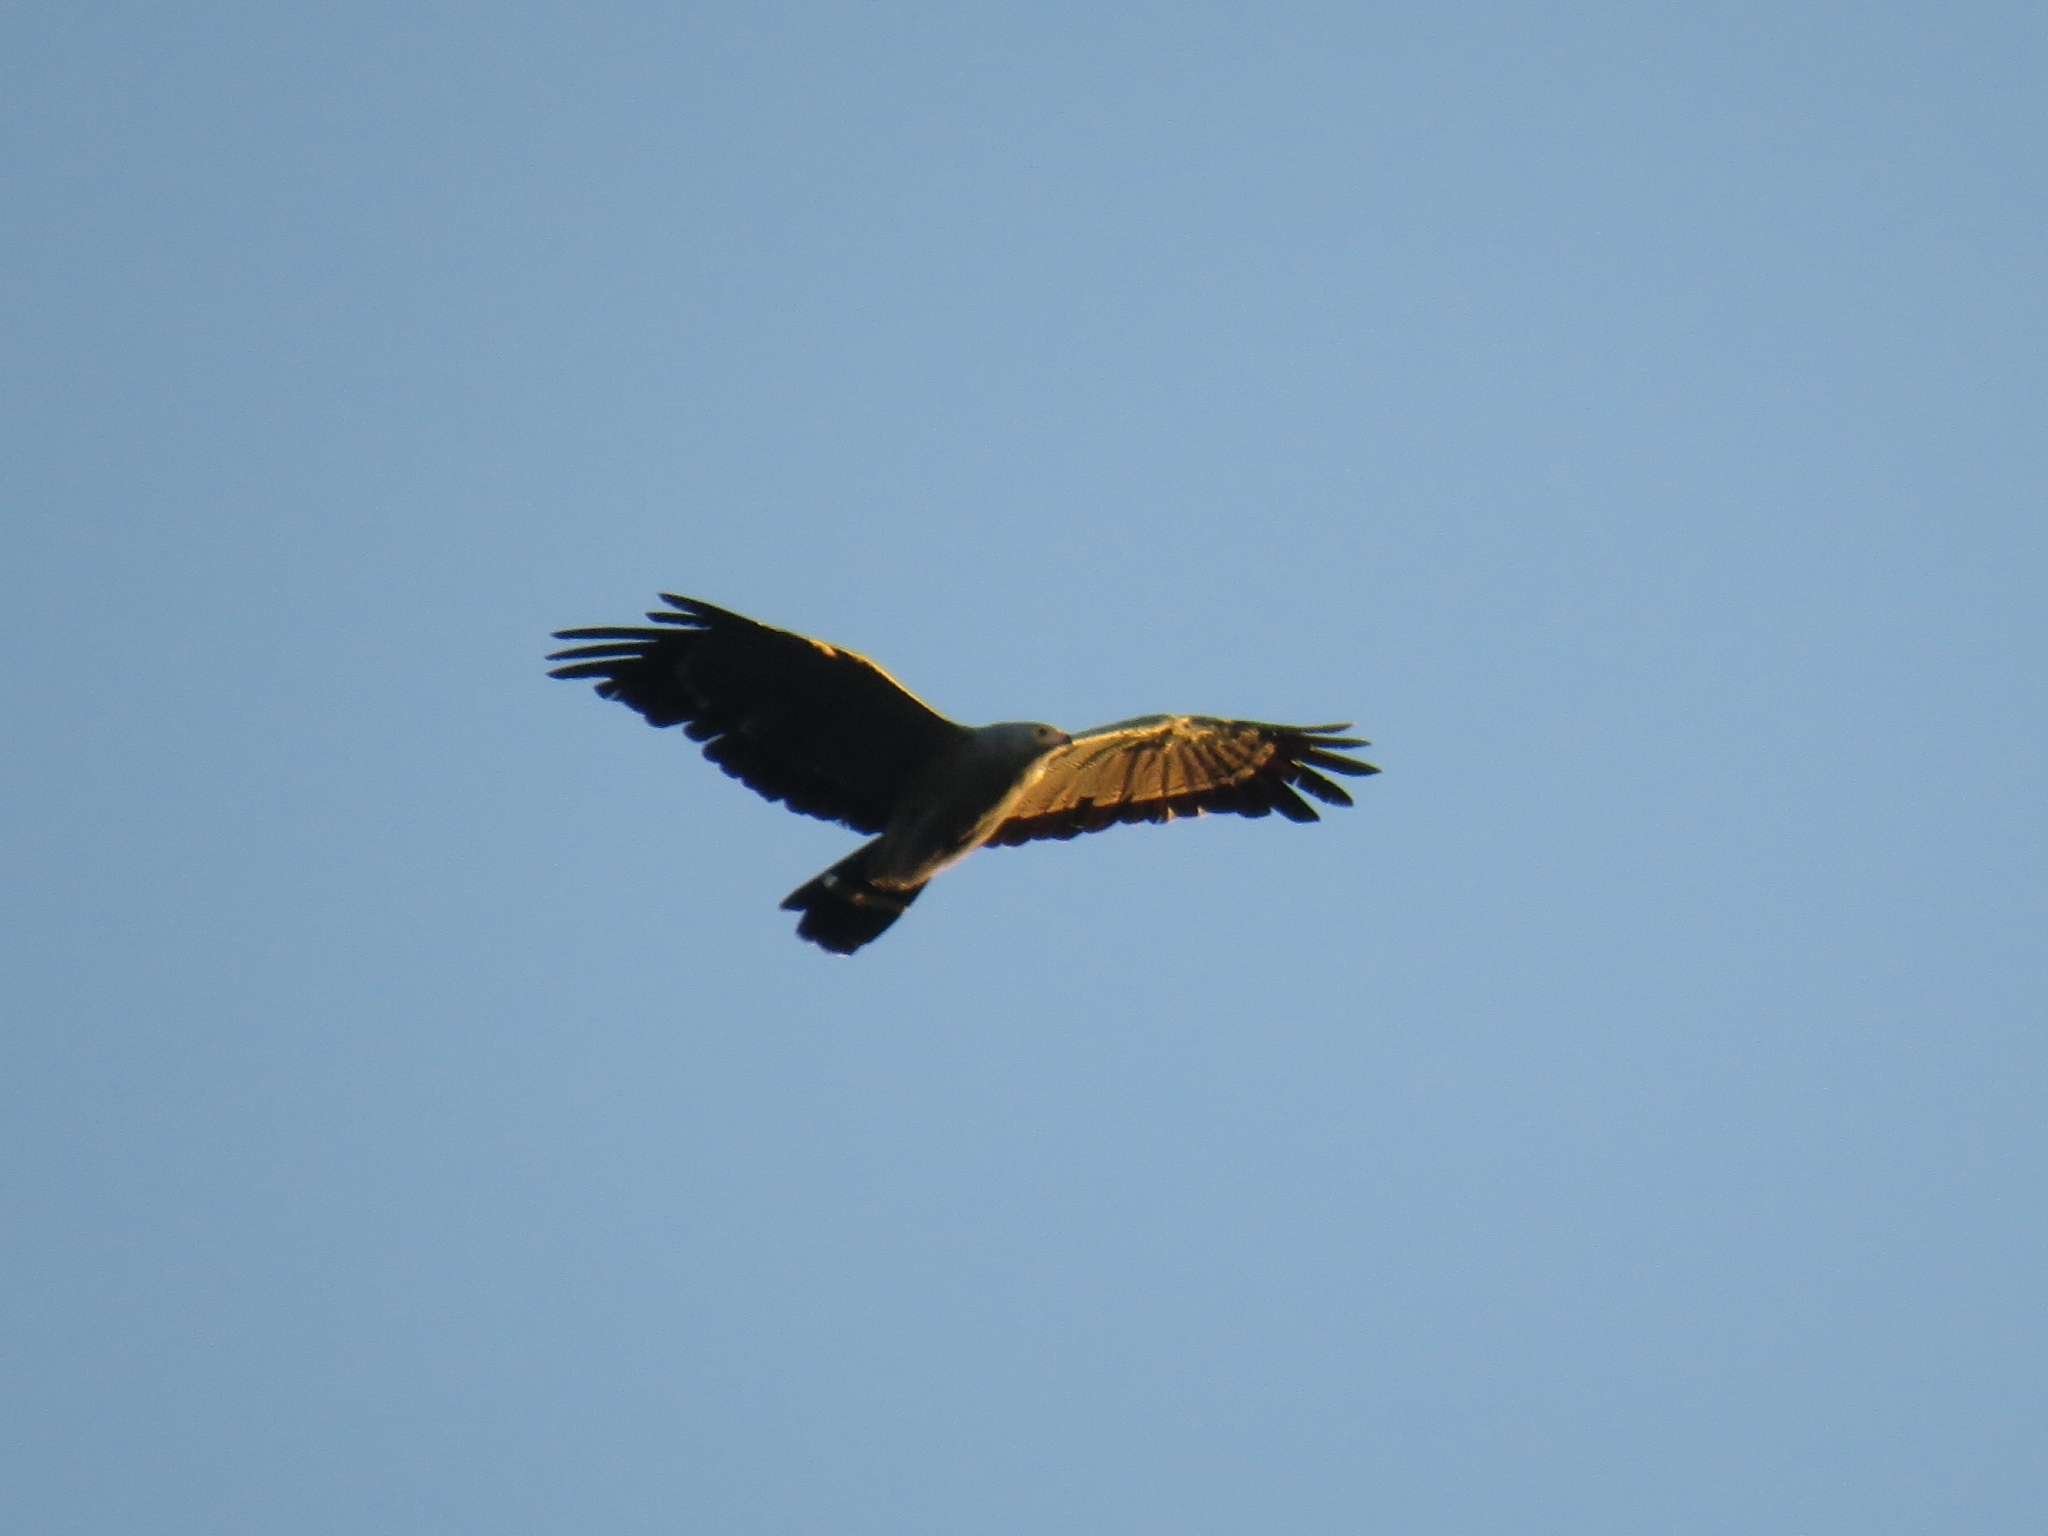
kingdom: Animalia
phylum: Chordata
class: Aves
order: Accipitriformes
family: Accipitridae
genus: Polyboroides
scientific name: Polyboroides typus
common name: African harrier-hawk
